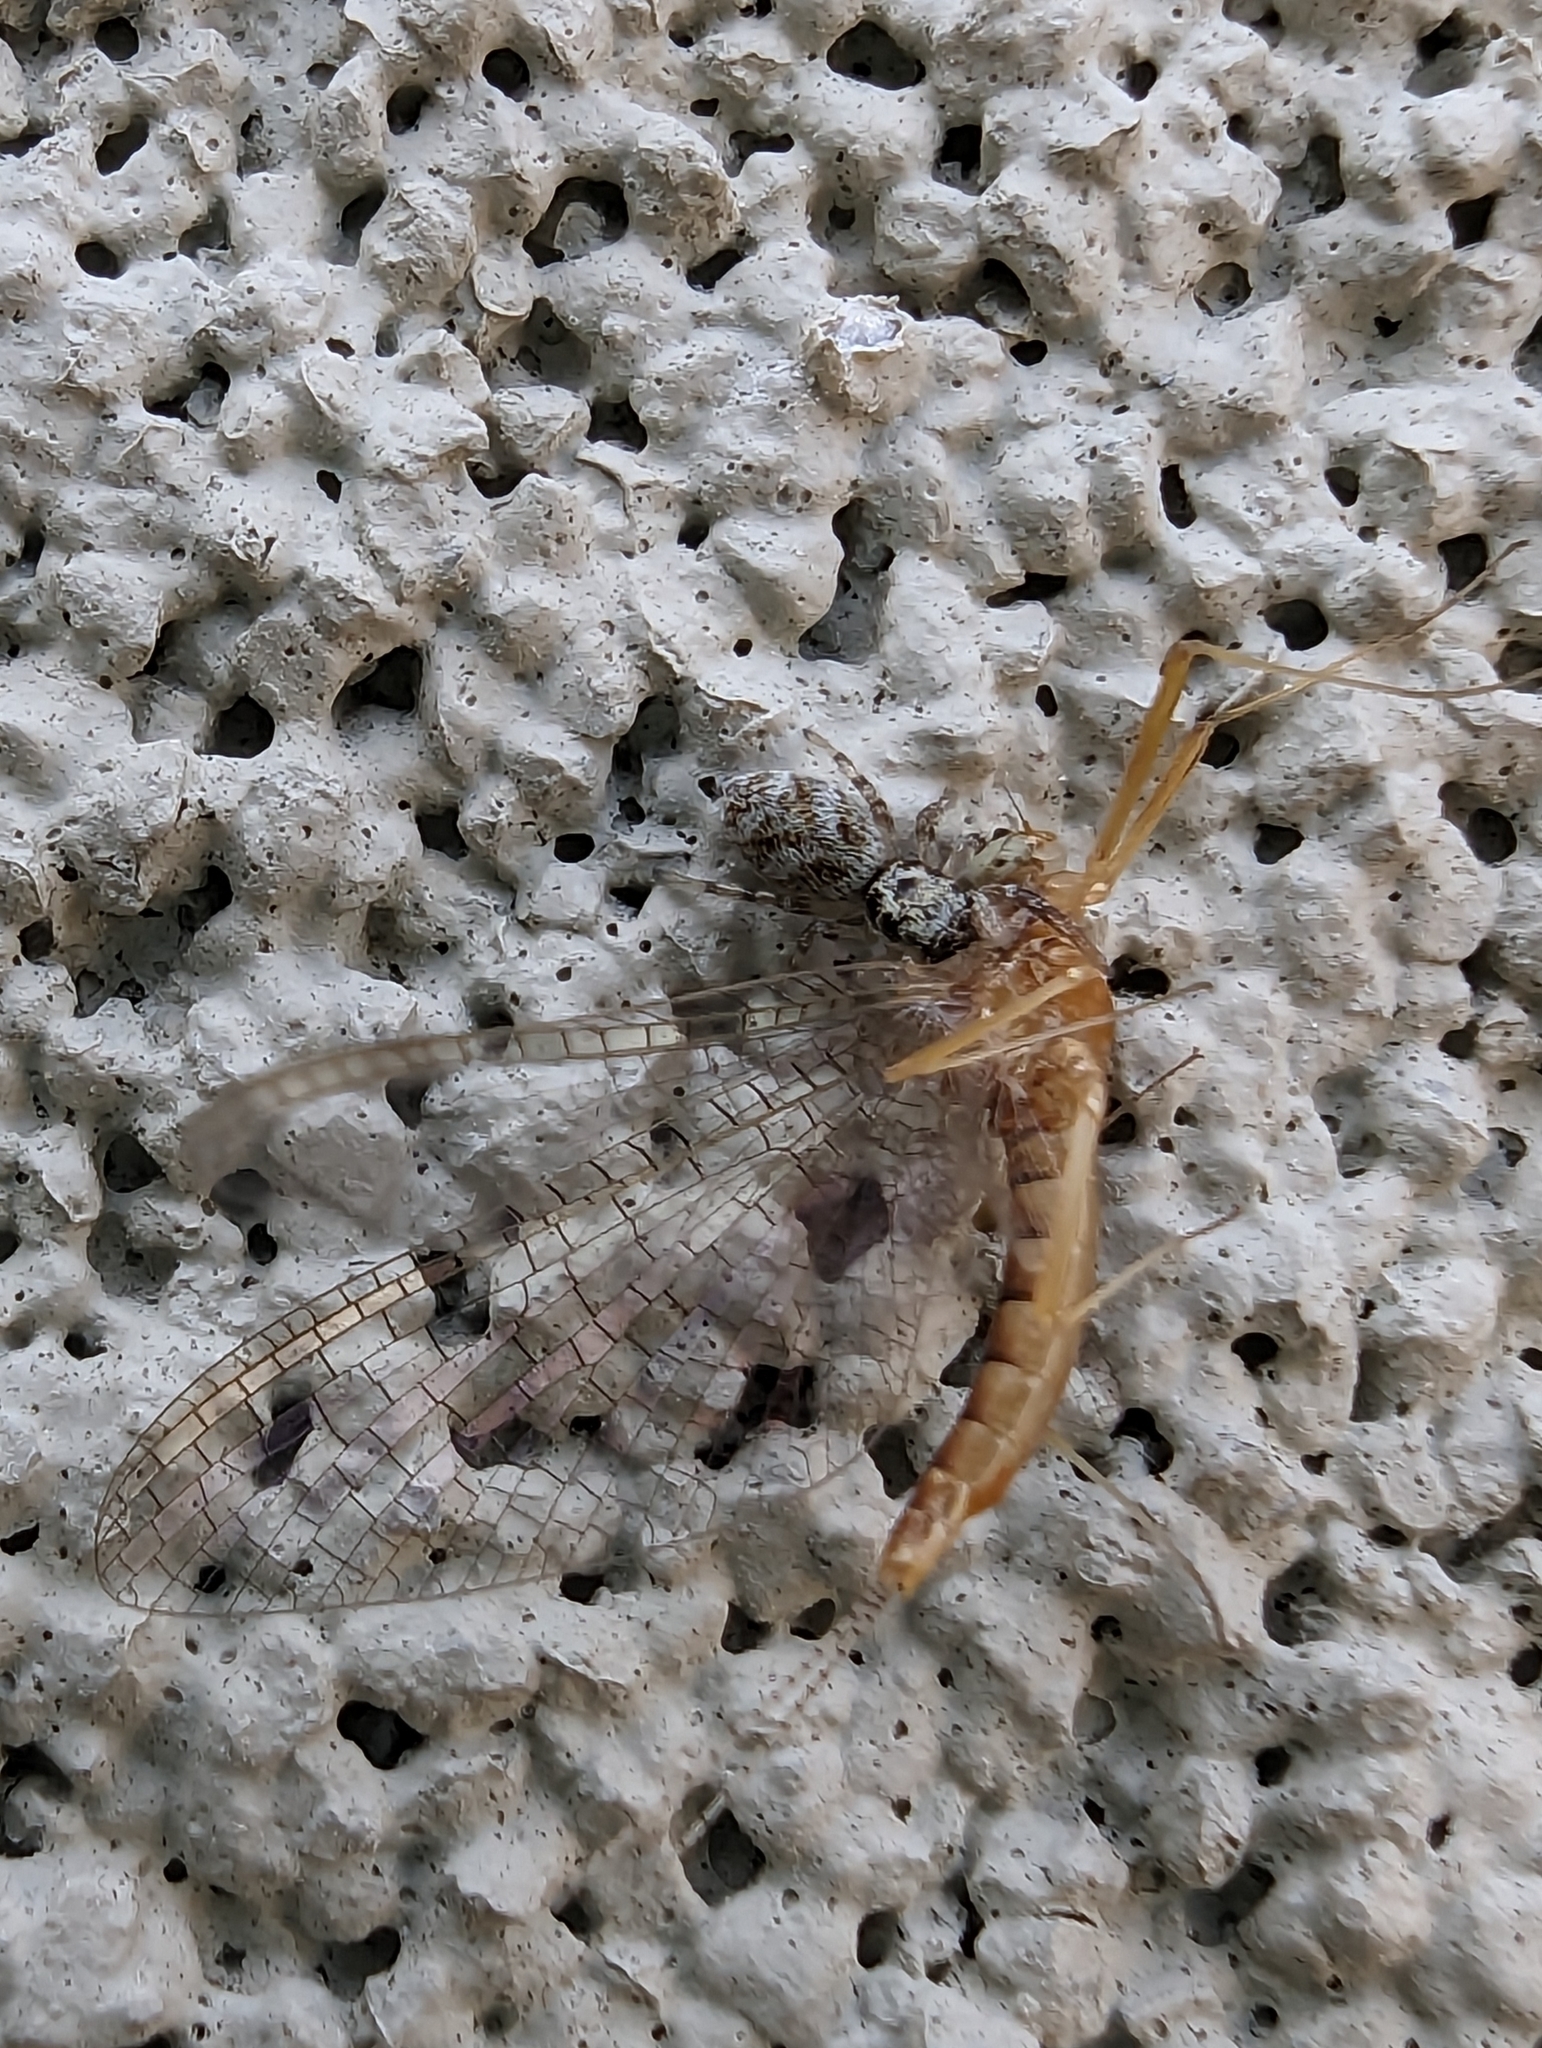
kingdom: Animalia
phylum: Arthropoda
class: Arachnida
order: Araneae
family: Salticidae
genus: Salticus
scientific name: Salticus scenicus
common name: Zebra jumper
